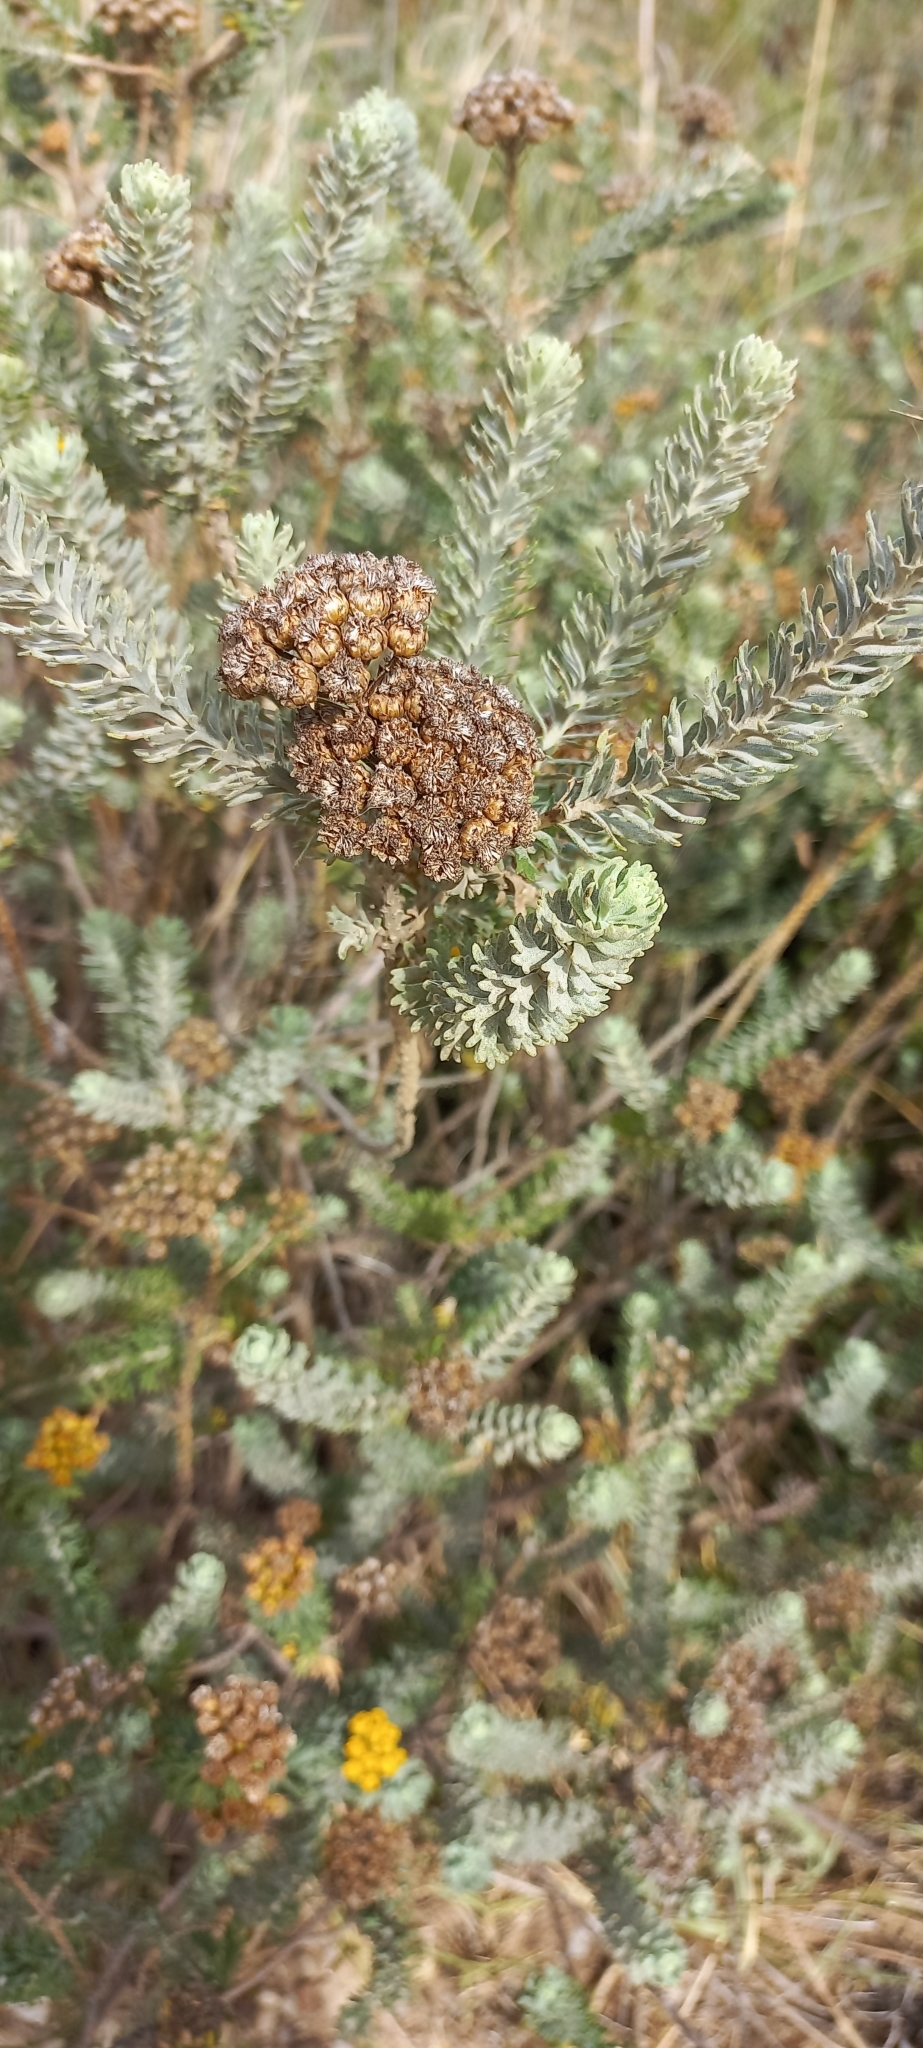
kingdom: Plantae
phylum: Tracheophyta
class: Magnoliopsida
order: Asterales
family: Asteraceae
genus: Athanasia
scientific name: Athanasia trifurcata
